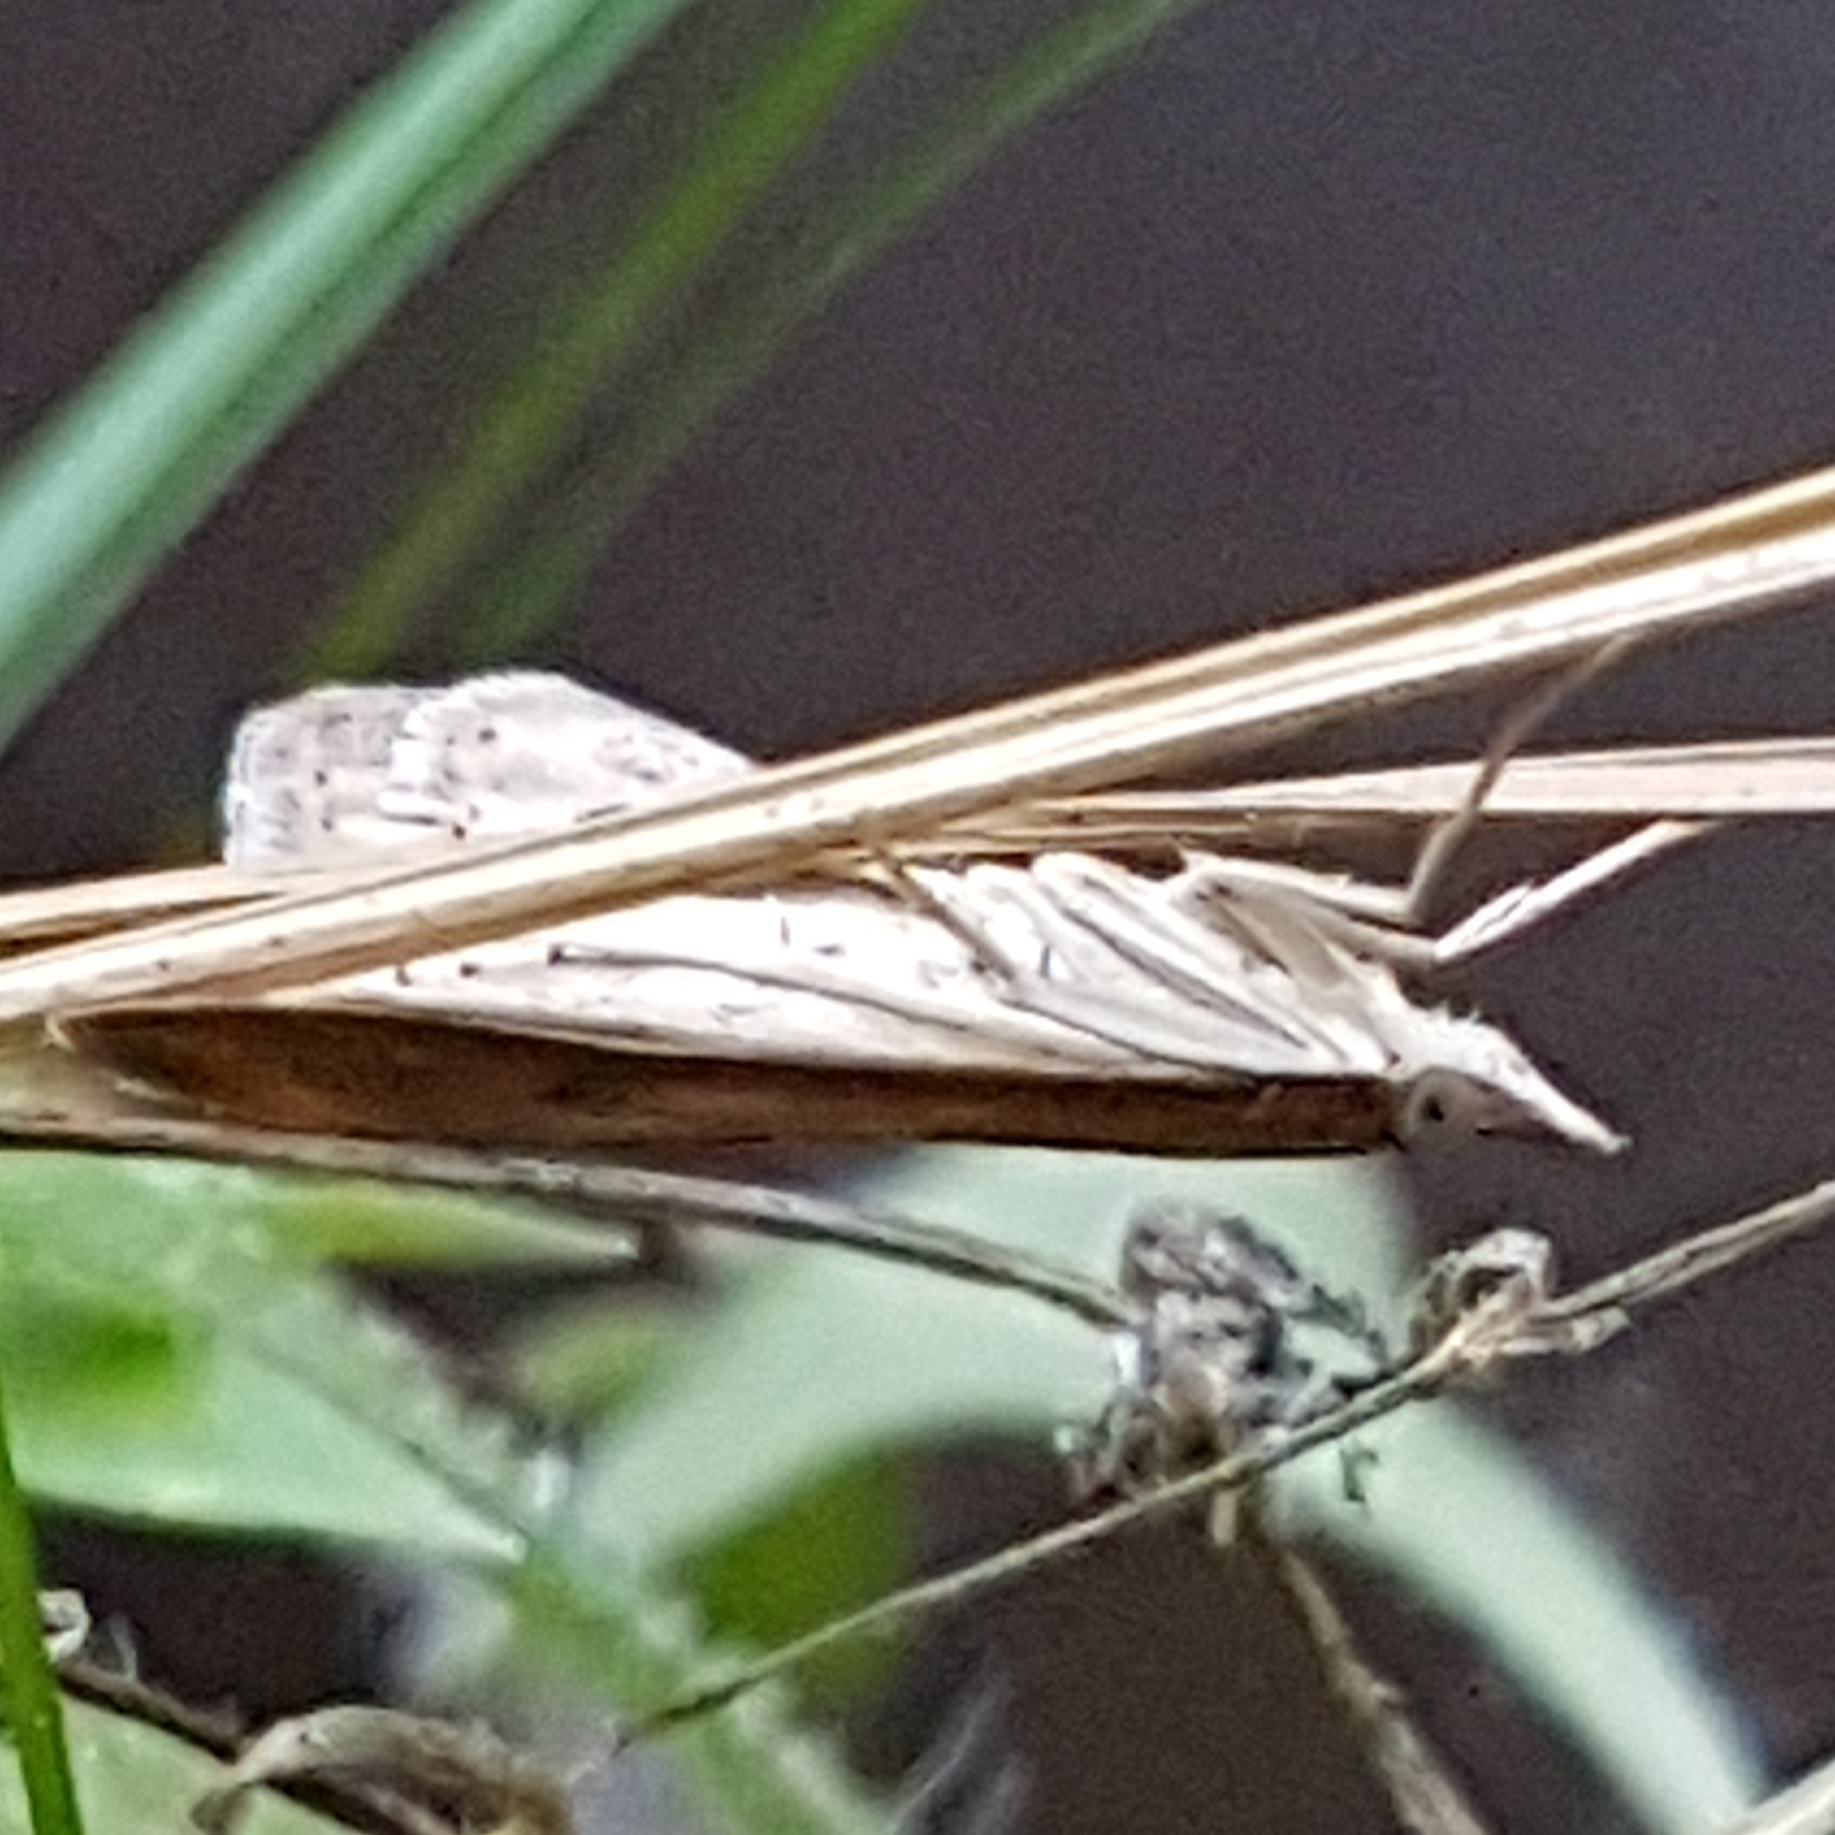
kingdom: Animalia
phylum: Arthropoda
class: Insecta
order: Lepidoptera
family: Crambidae
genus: Udea
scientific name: Udea ferrugalis
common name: Rusty dot
